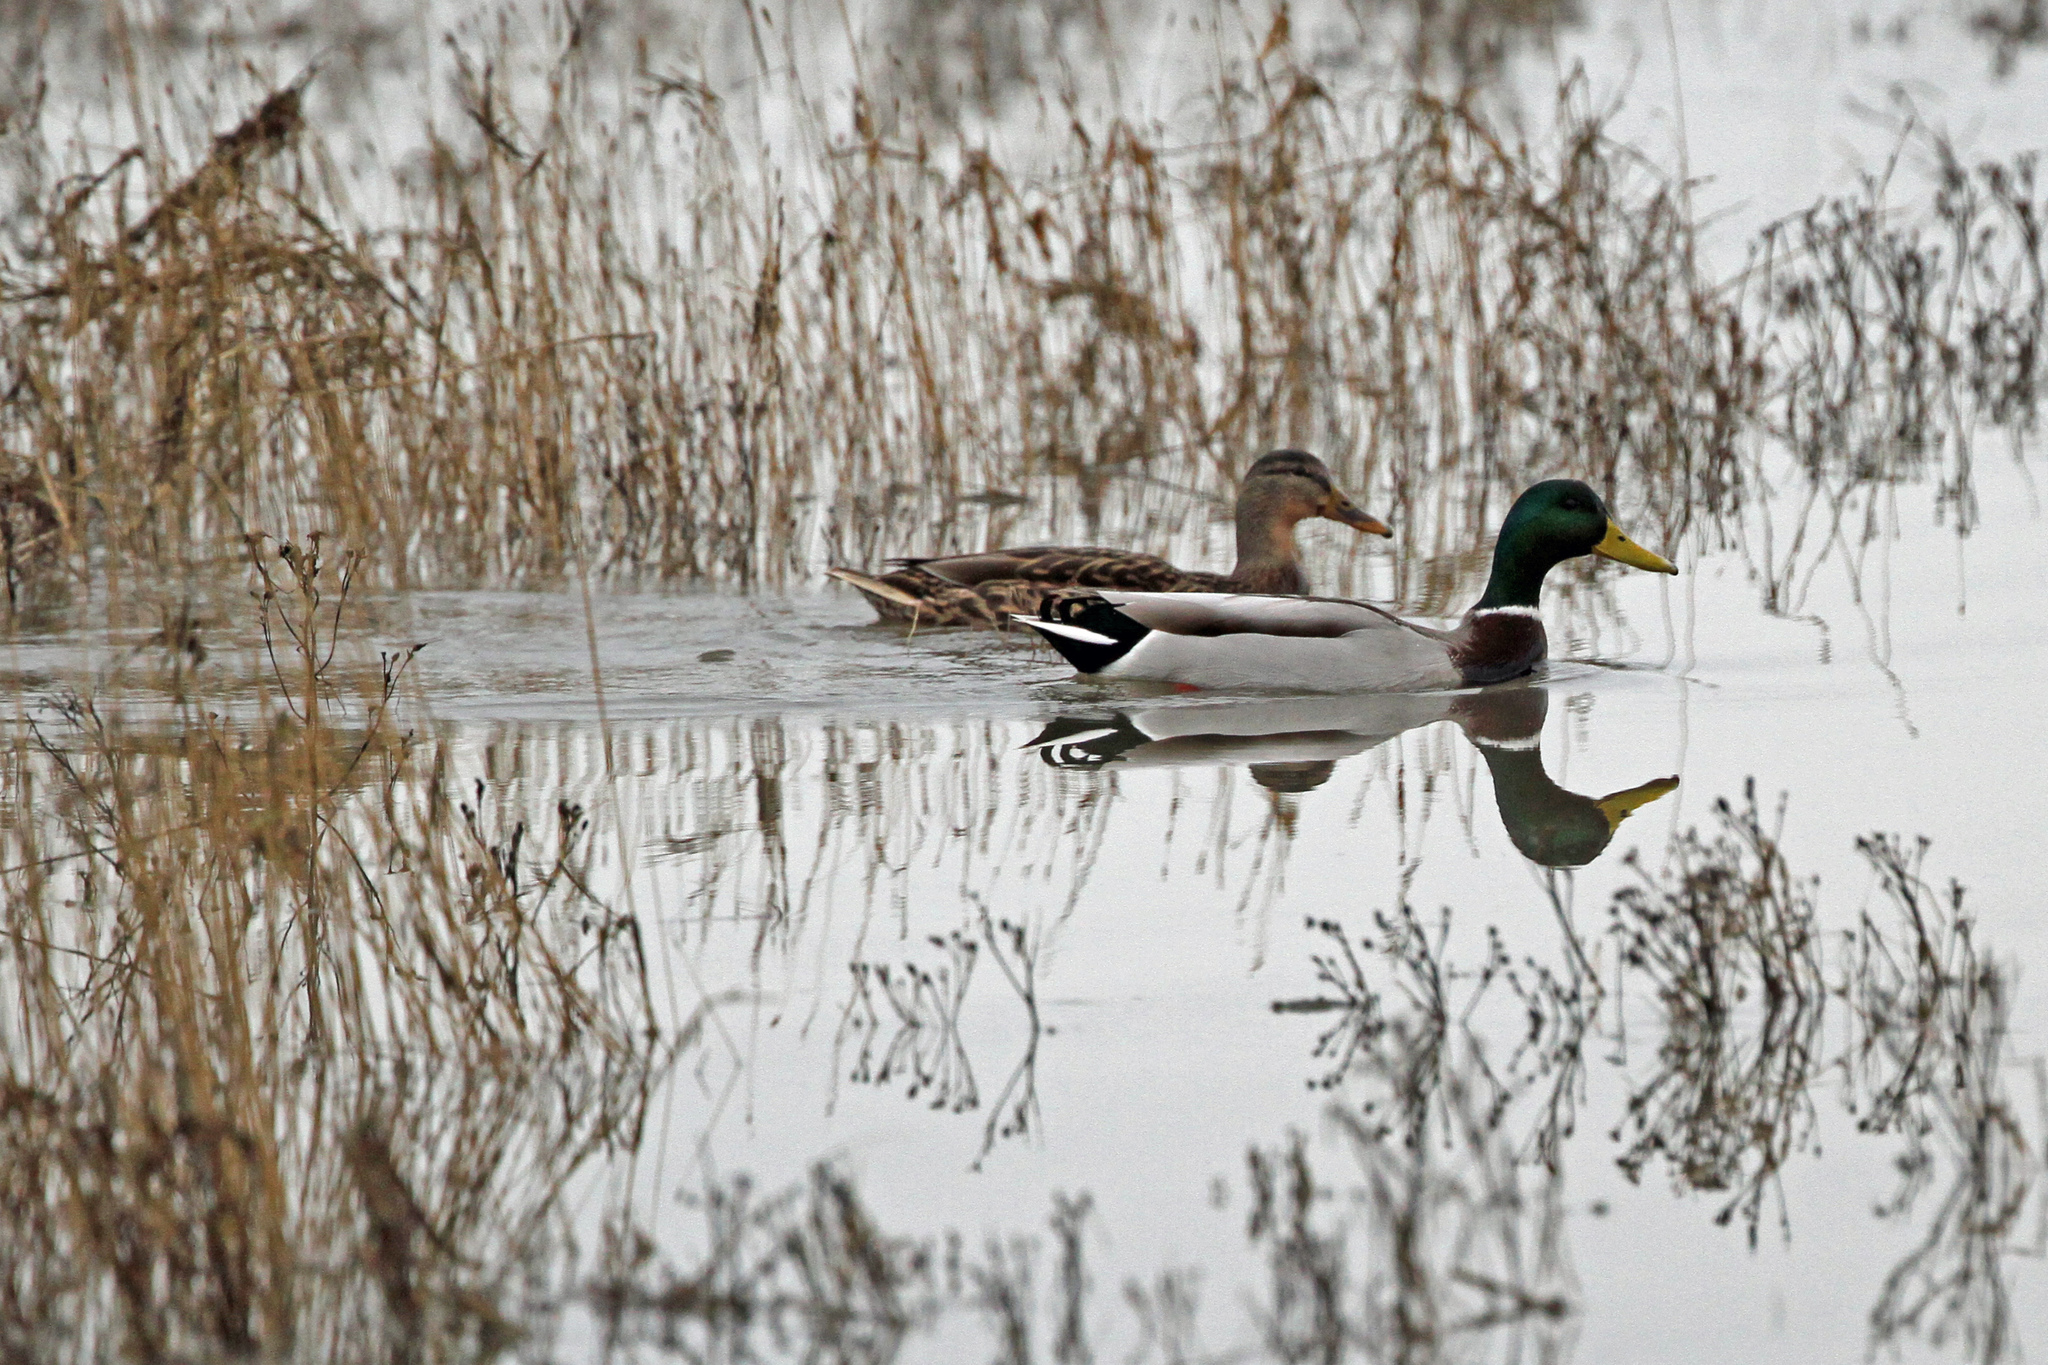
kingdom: Animalia
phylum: Chordata
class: Aves
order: Anseriformes
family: Anatidae
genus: Anas
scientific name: Anas platyrhynchos
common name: Mallard
